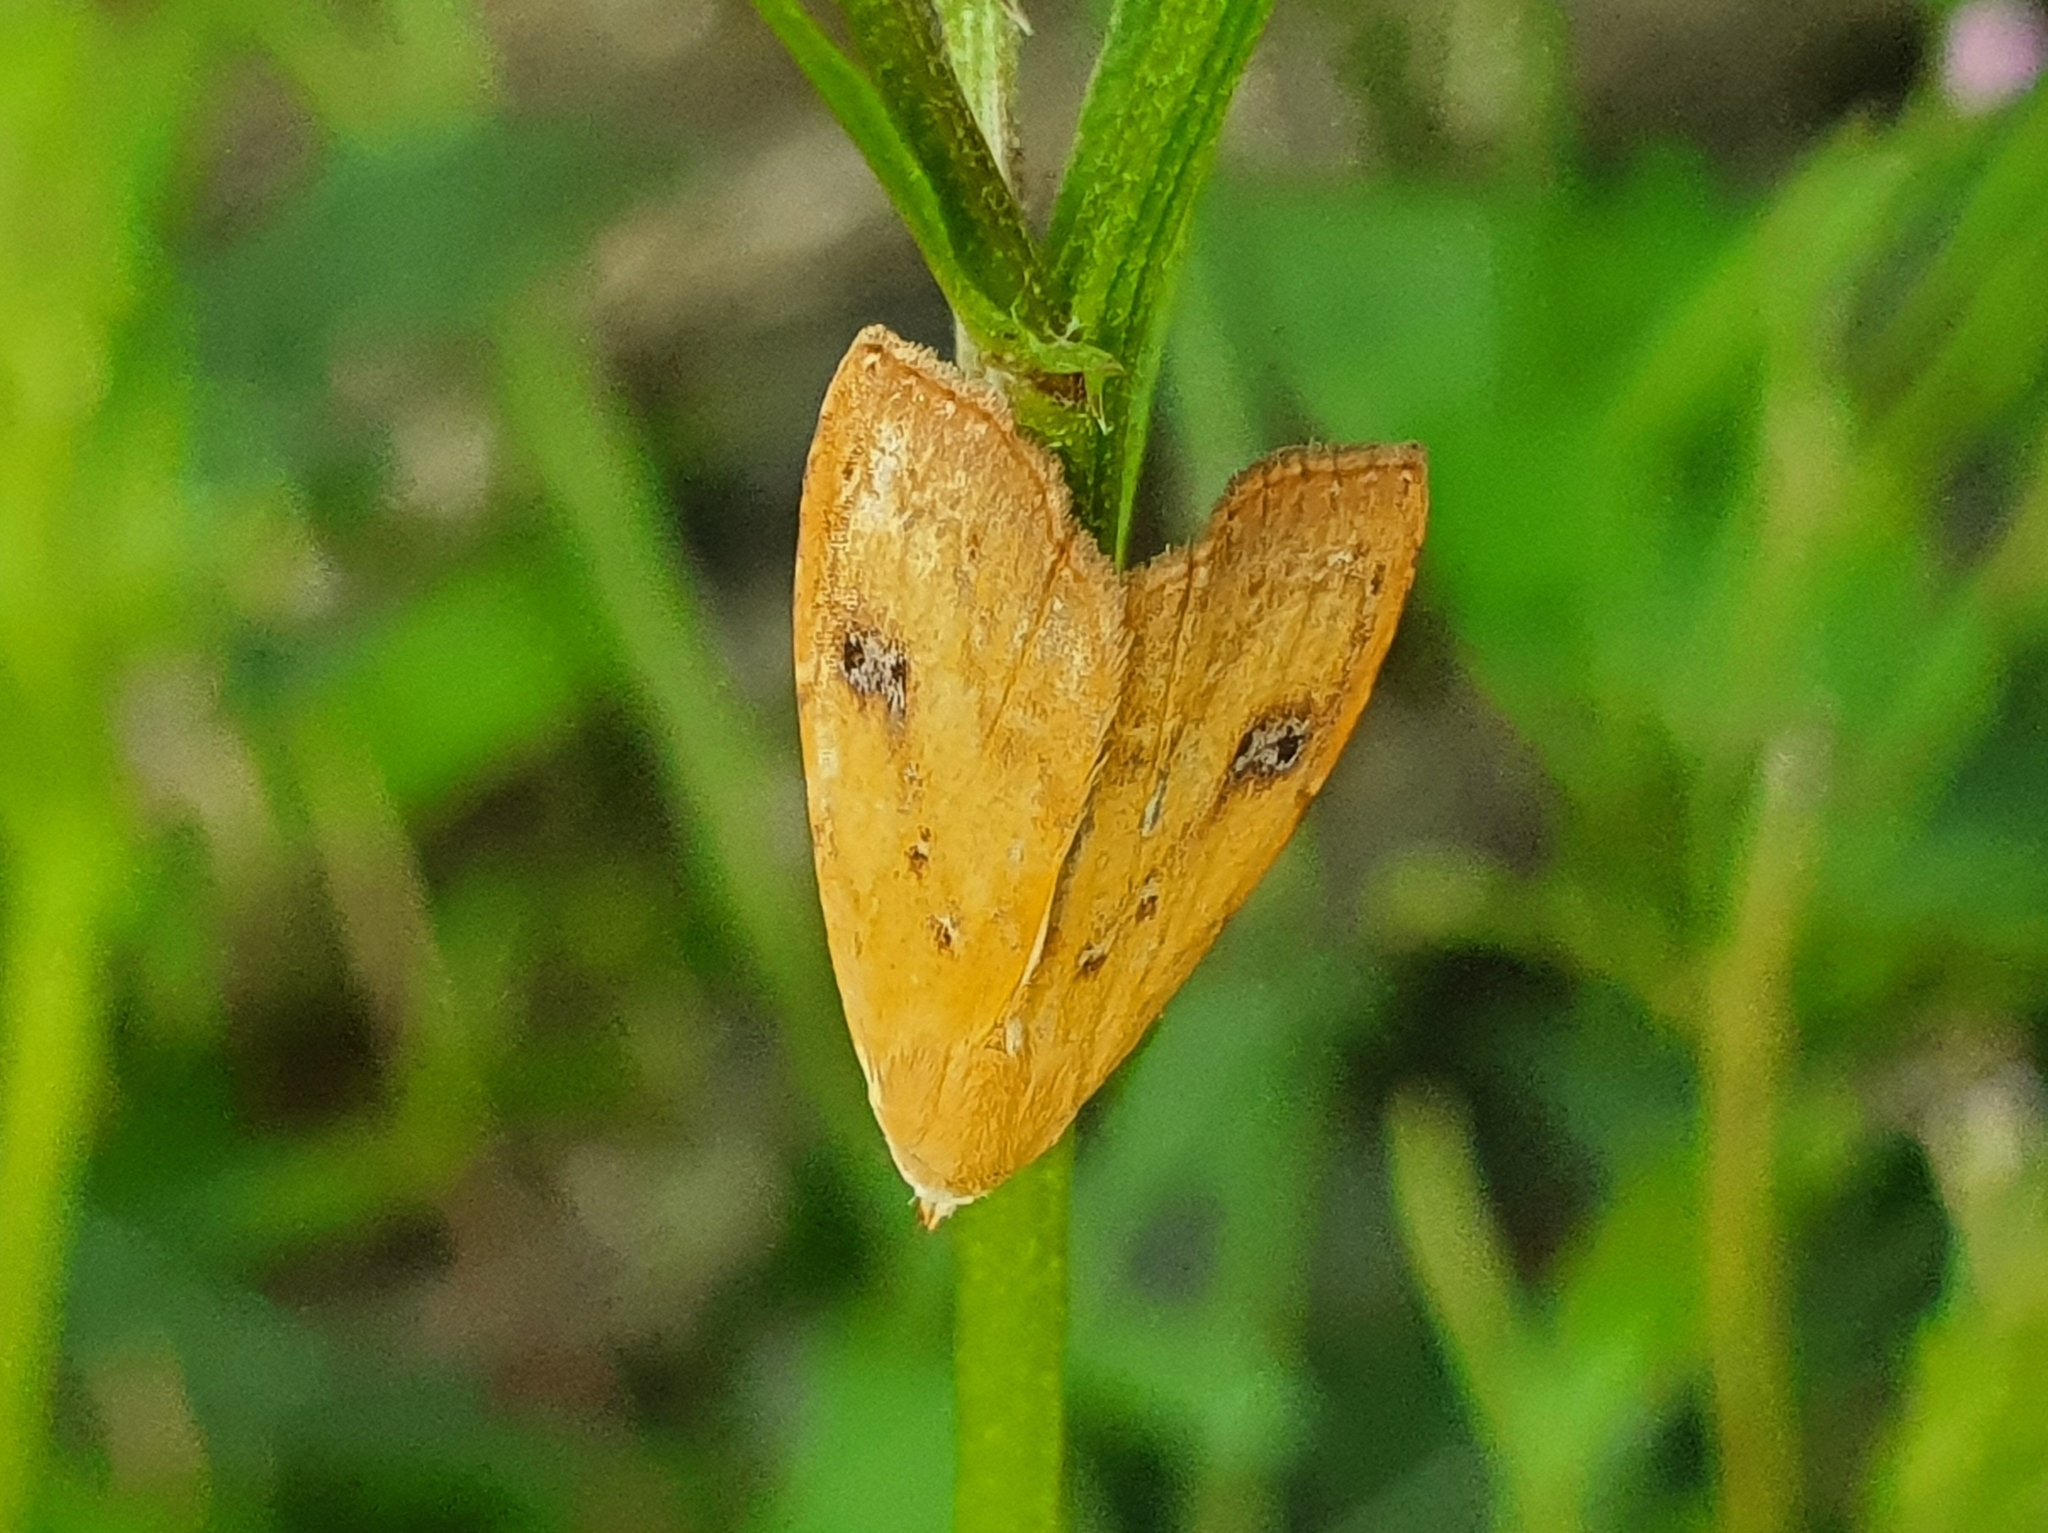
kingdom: Animalia
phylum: Arthropoda
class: Insecta
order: Lepidoptera
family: Erebidae
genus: Rivula
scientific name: Rivula sericealis
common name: Straw dot
